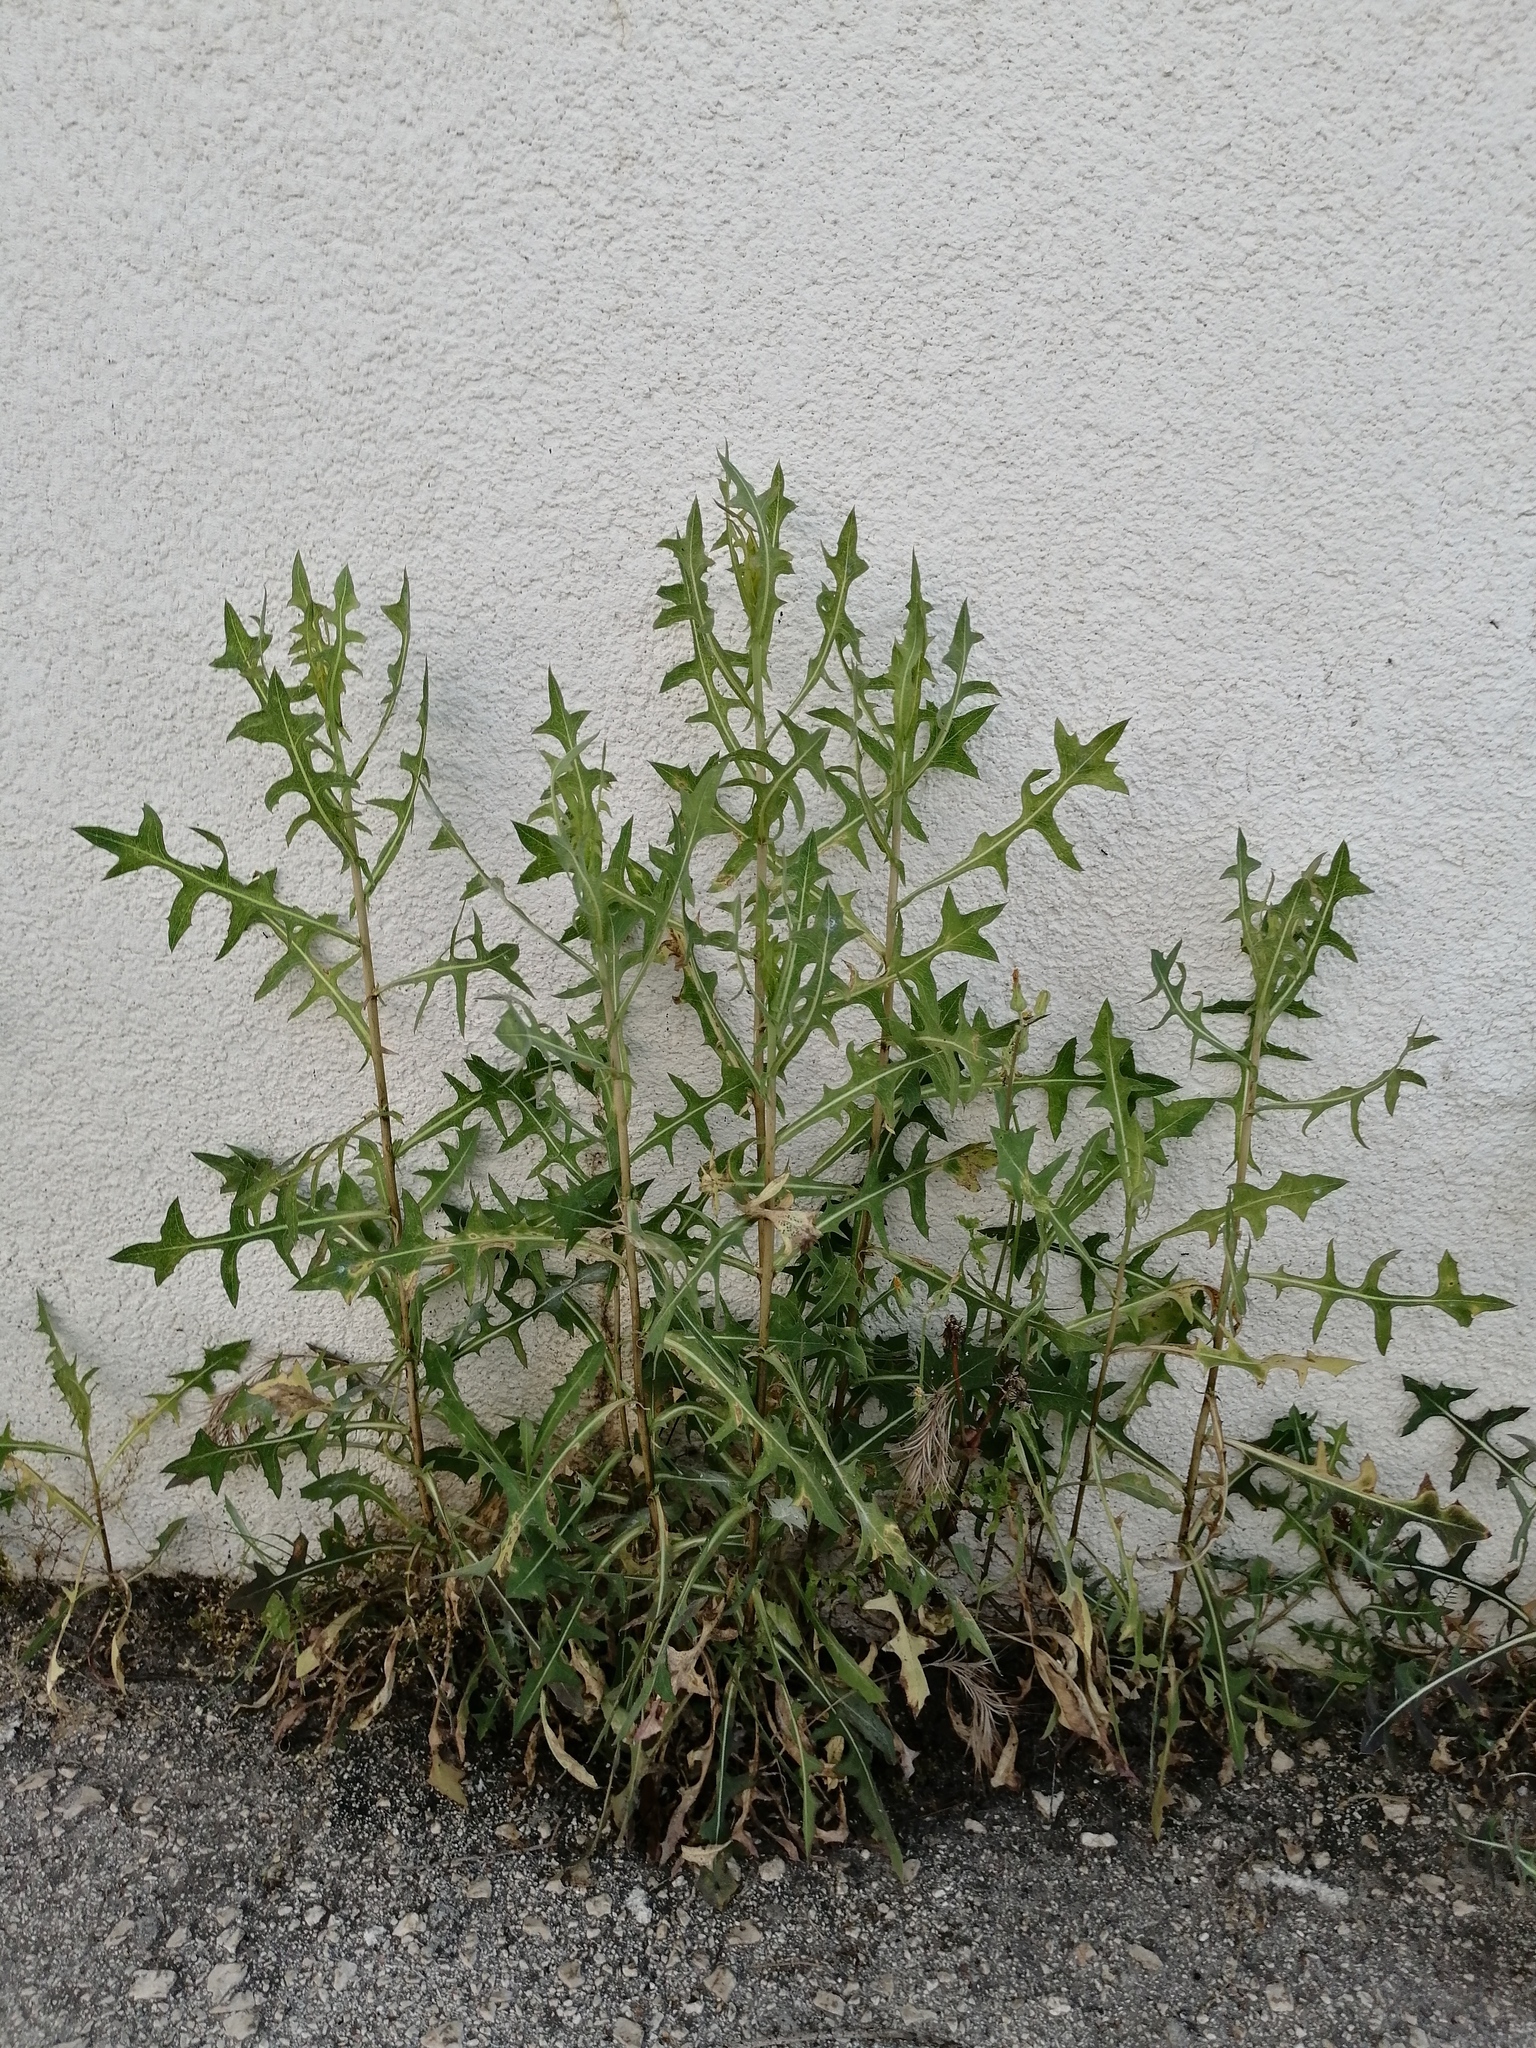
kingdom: Plantae
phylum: Tracheophyta
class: Magnoliopsida
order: Asterales
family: Asteraceae
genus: Lactuca
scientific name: Lactuca serriola
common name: Prickly lettuce
